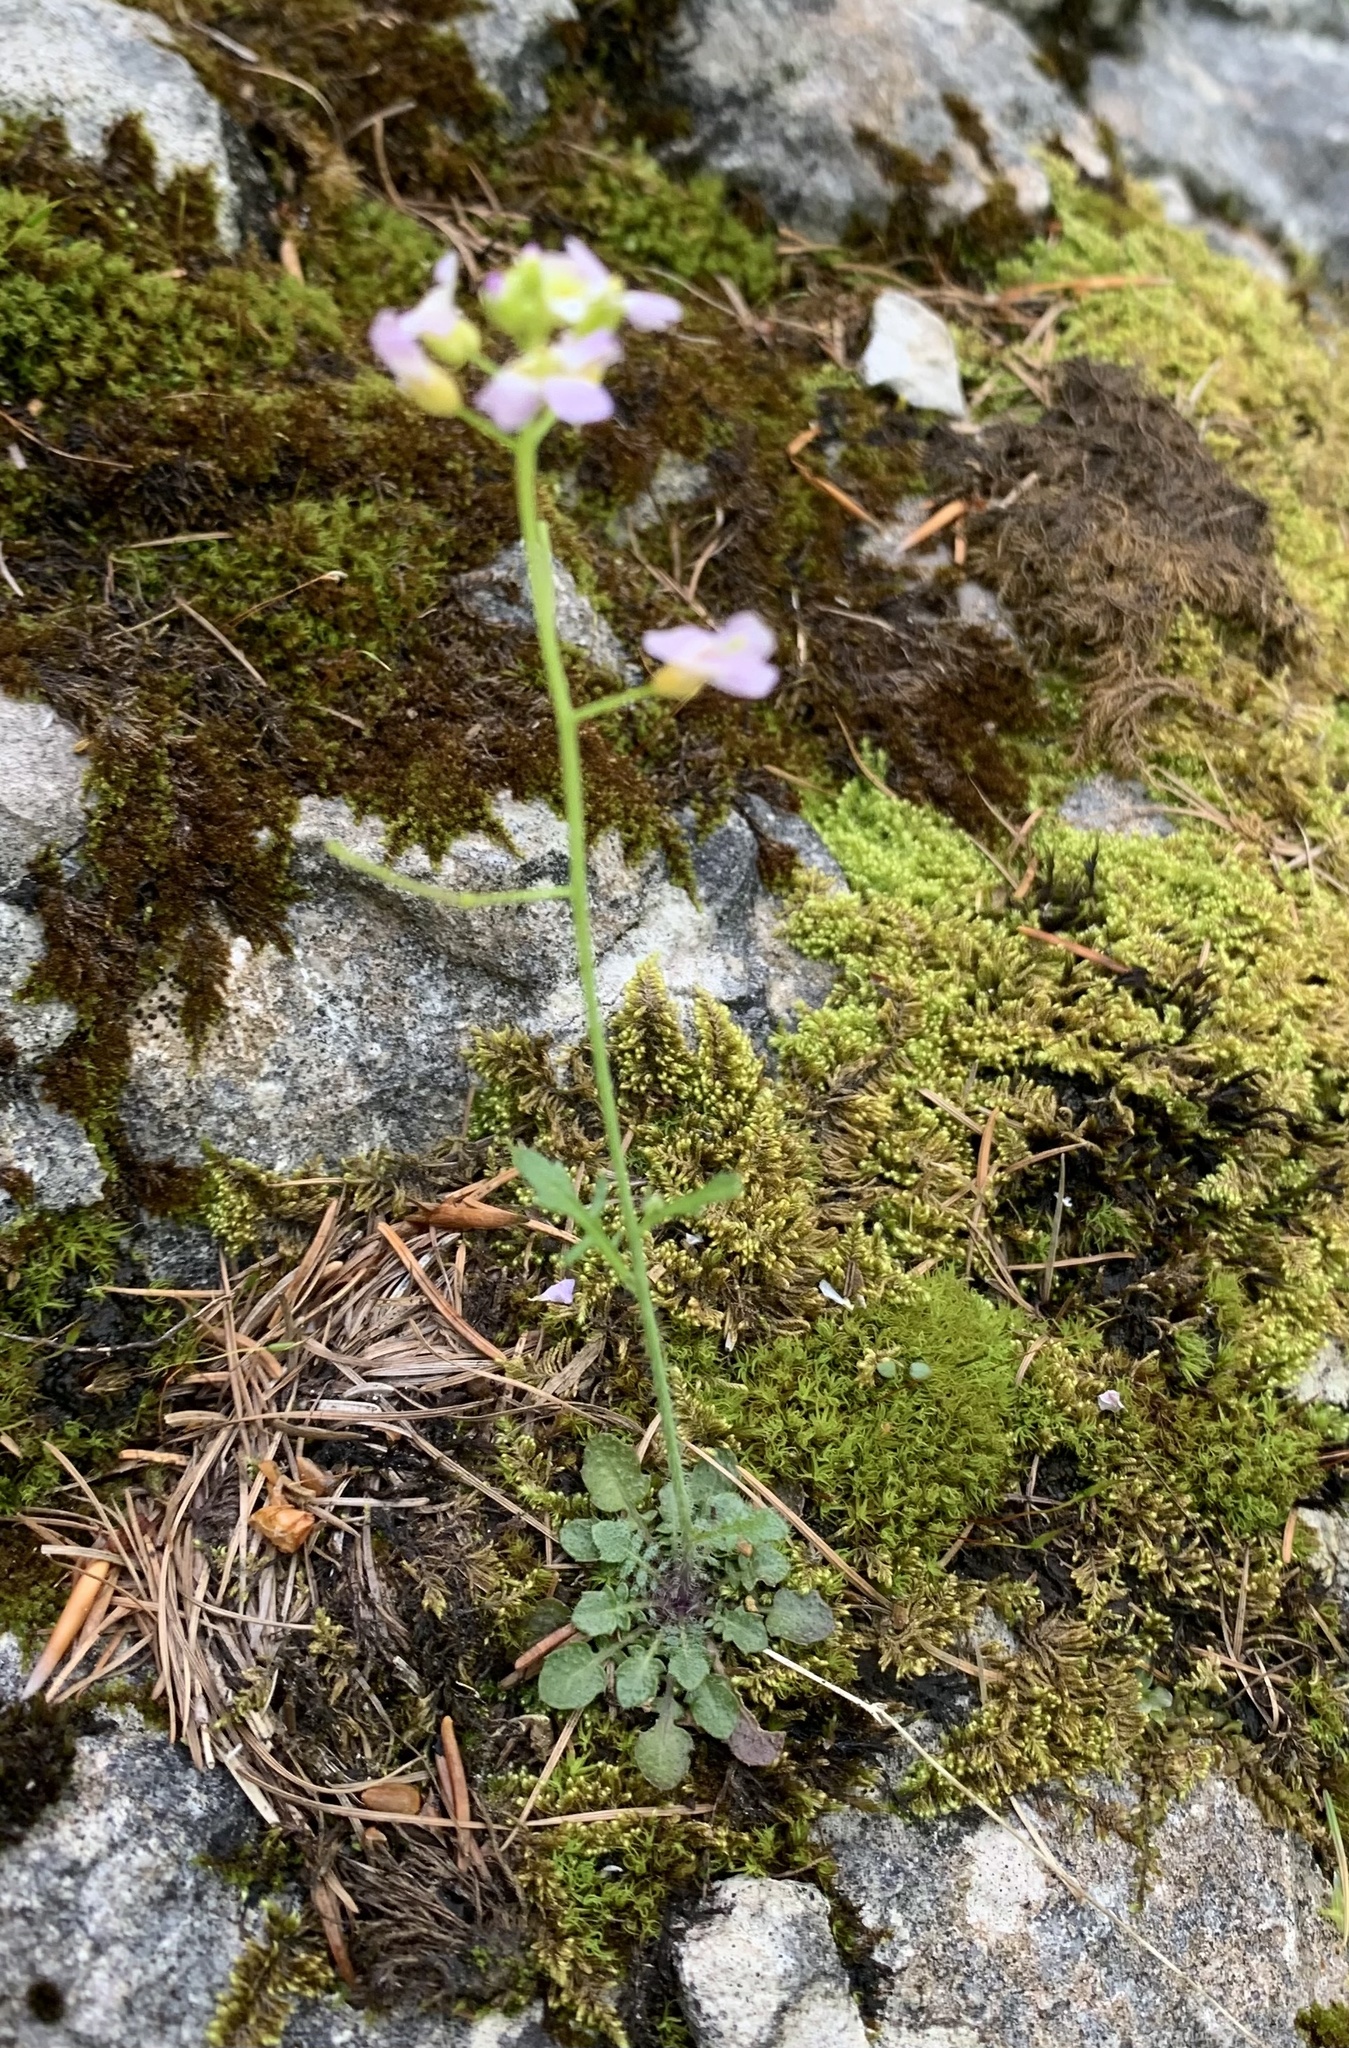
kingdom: Plantae
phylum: Tracheophyta
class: Magnoliopsida
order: Brassicales
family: Brassicaceae
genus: Arabidopsis
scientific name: Arabidopsis arenosa
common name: Sand rock-cress
